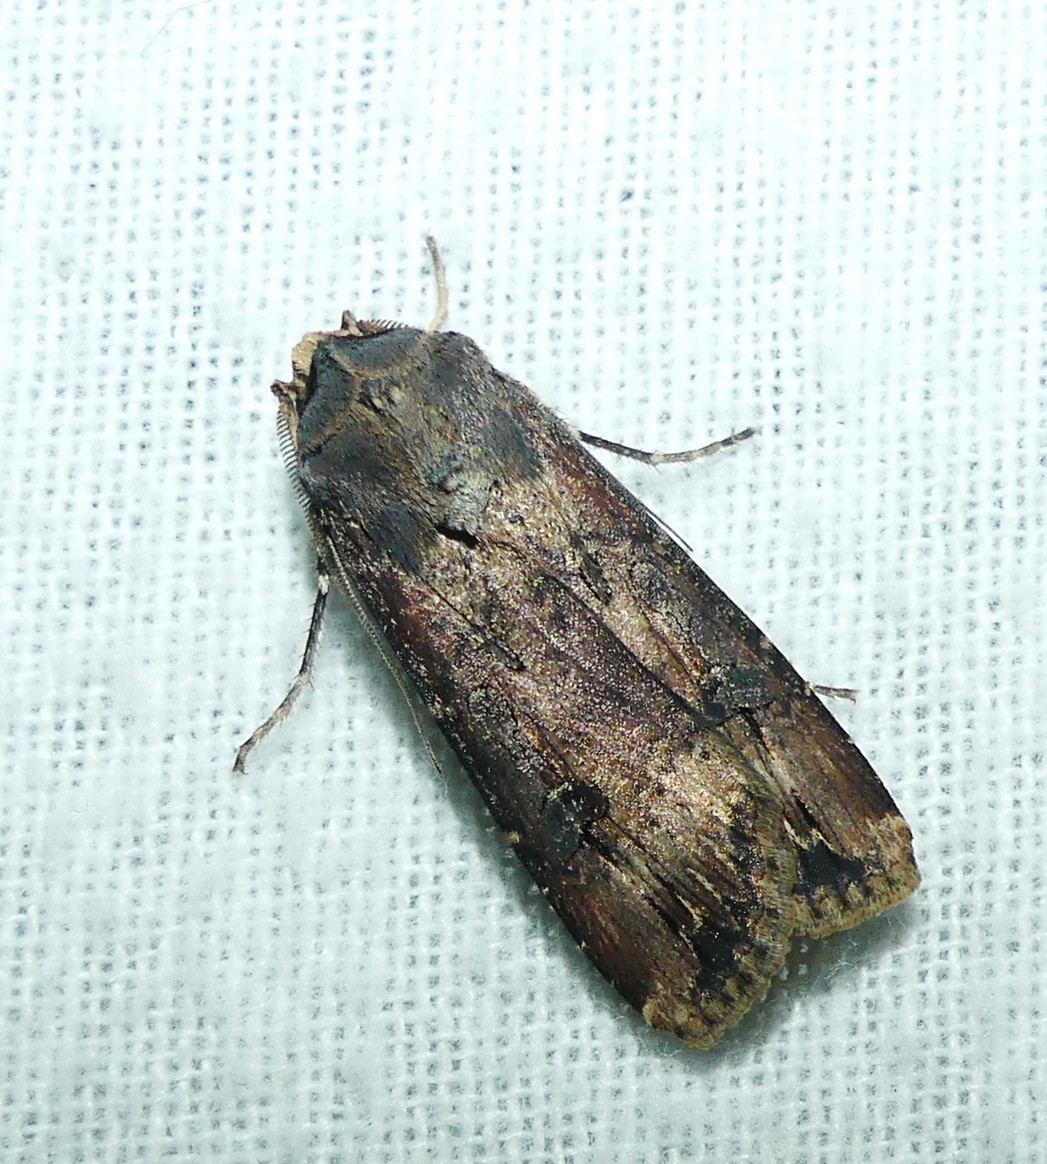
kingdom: Animalia
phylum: Arthropoda
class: Insecta
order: Lepidoptera
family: Noctuidae
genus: Agrotis
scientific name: Agrotis ipsilon
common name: Dark sword-grass
